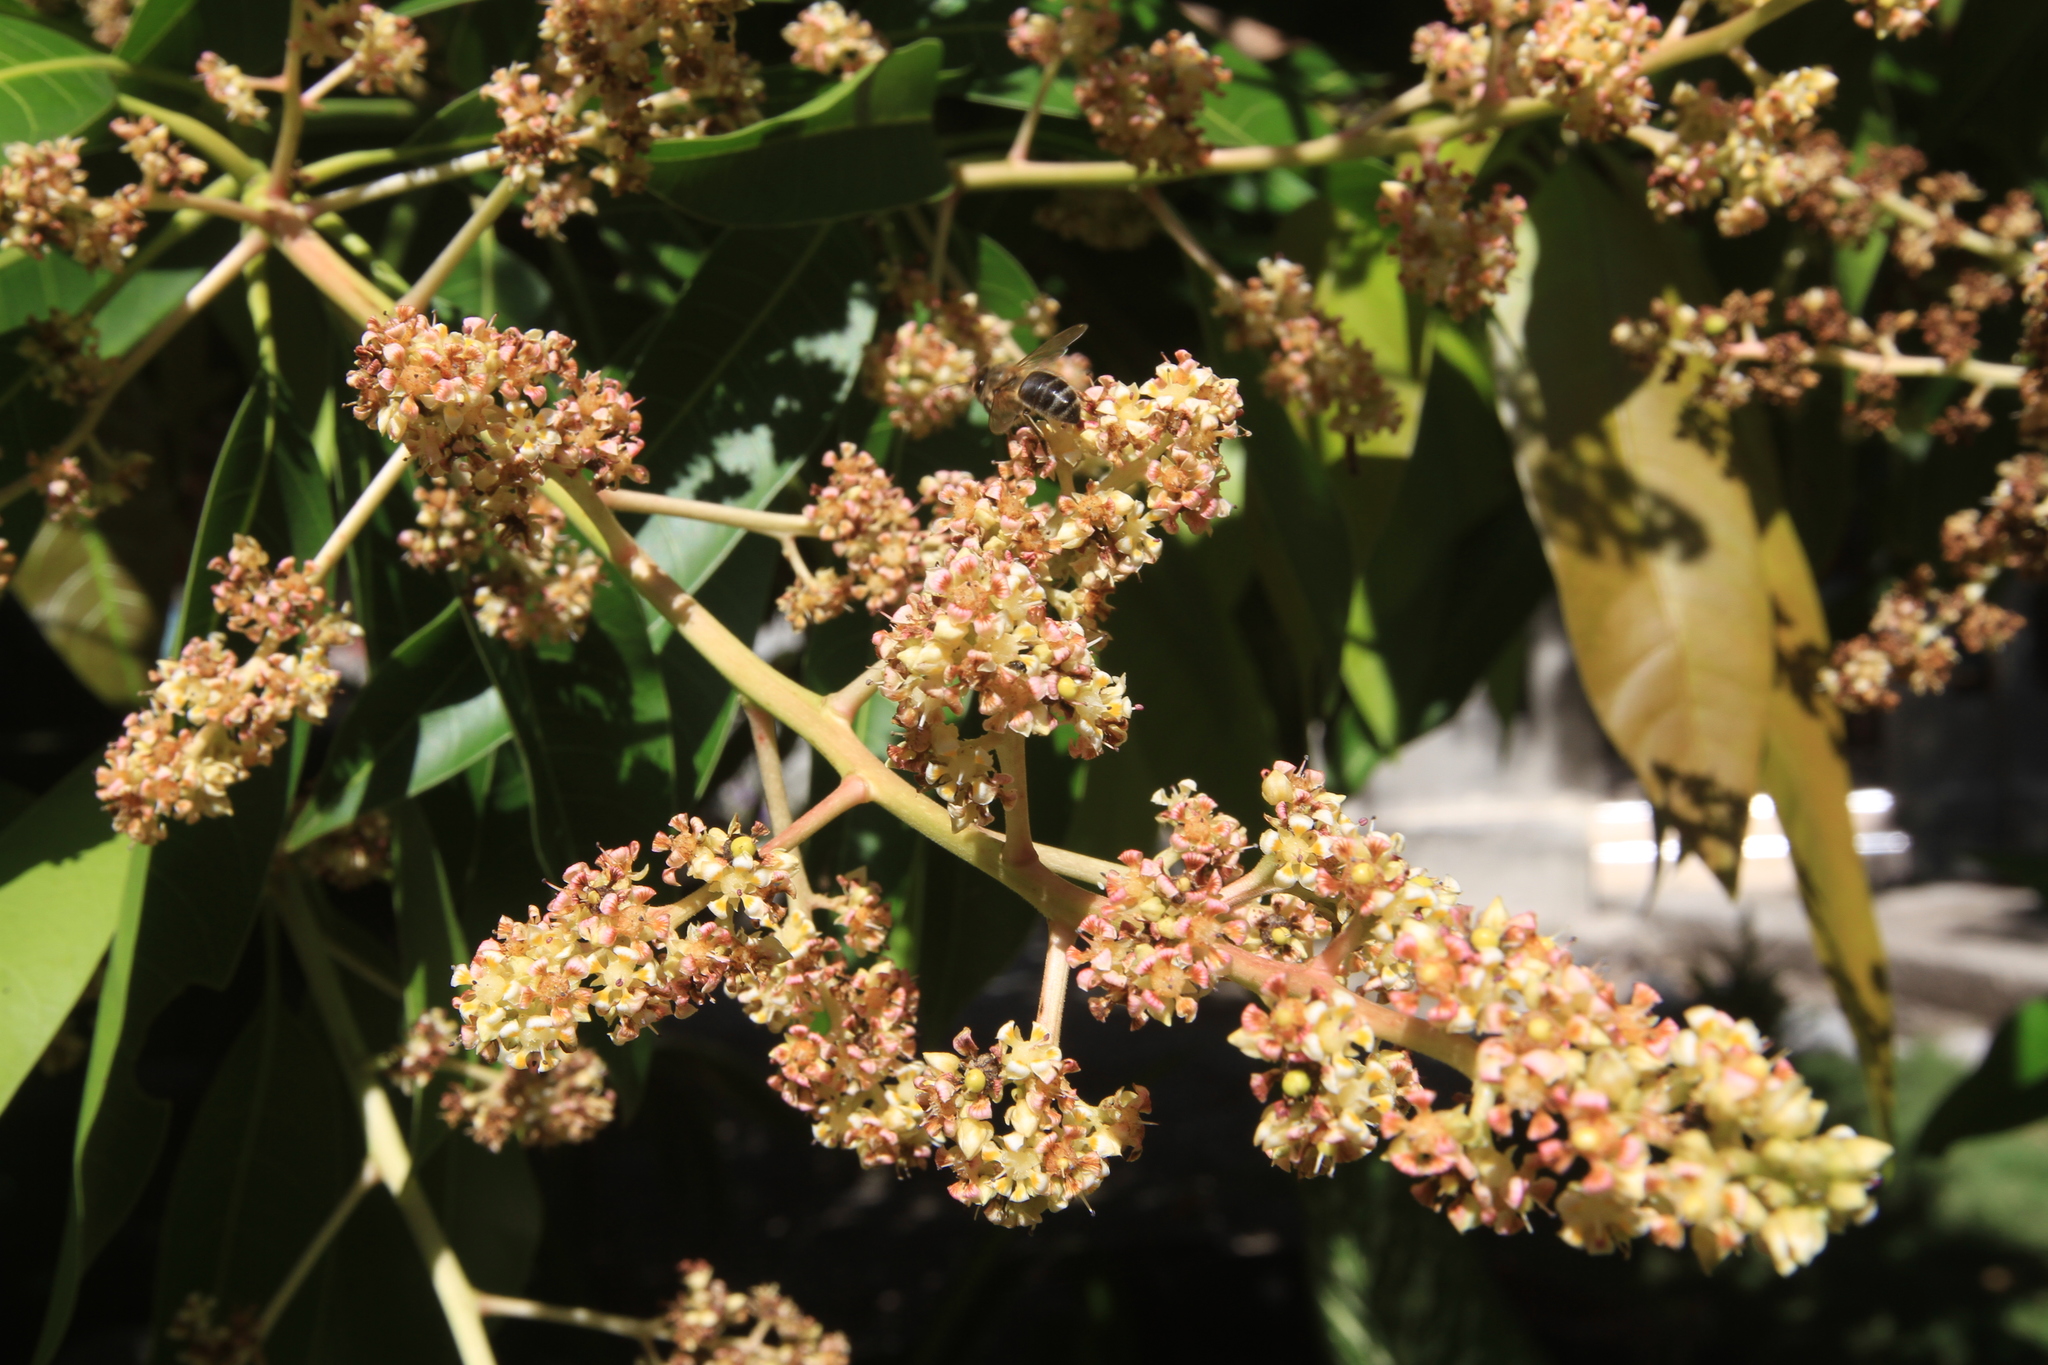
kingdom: Plantae
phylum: Tracheophyta
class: Magnoliopsida
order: Sapindales
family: Anacardiaceae
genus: Mangifera
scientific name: Mangifera indica
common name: Mango
